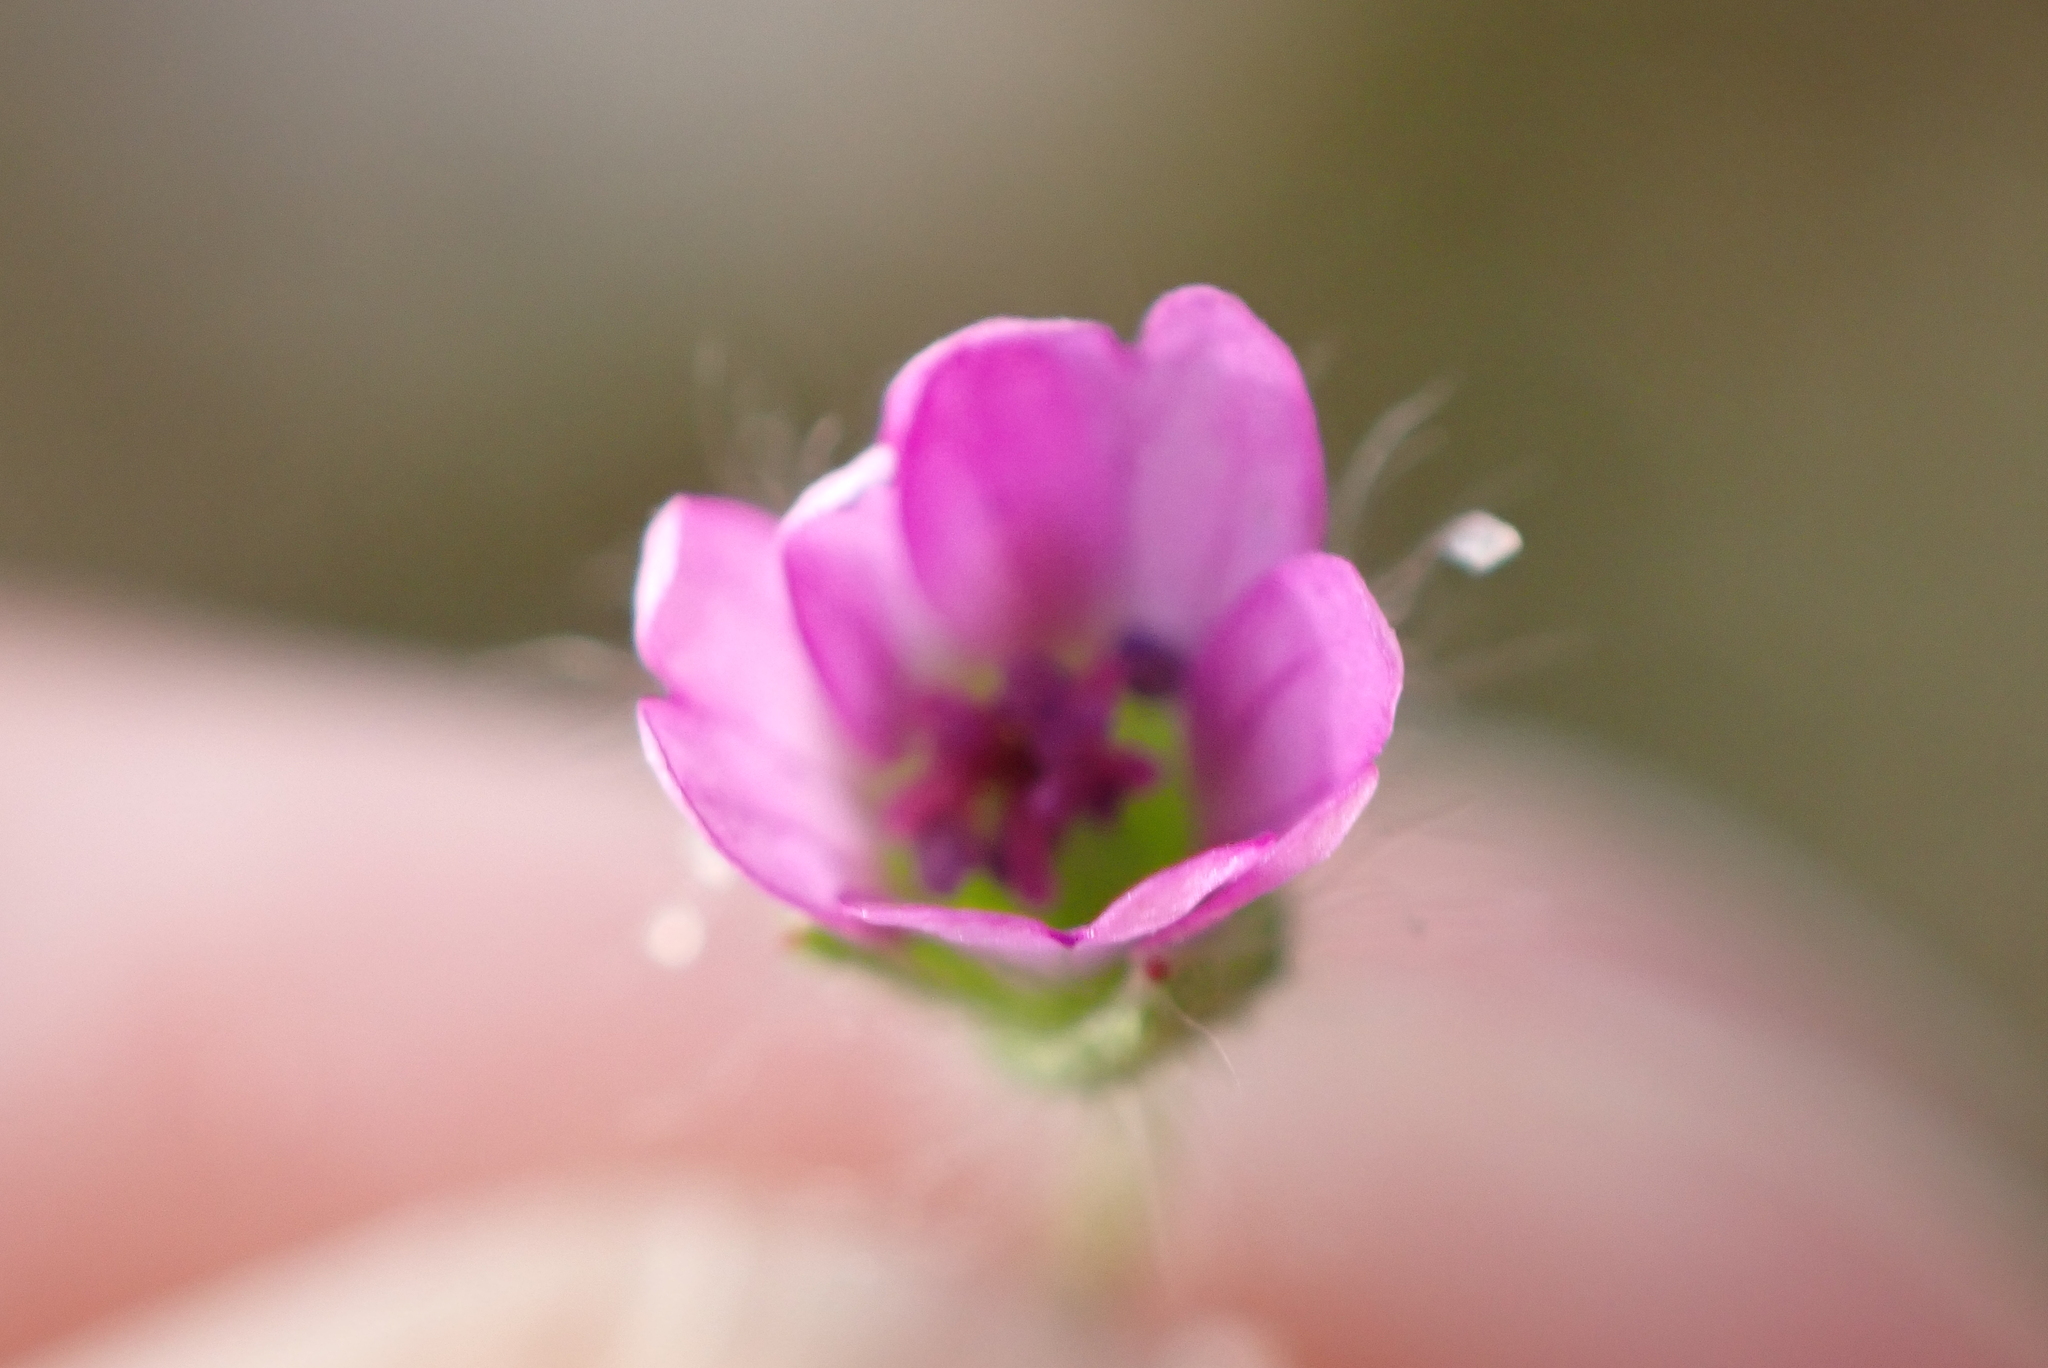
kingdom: Plantae
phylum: Tracheophyta
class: Magnoliopsida
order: Geraniales
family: Geraniaceae
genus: Geranium
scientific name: Geranium molle
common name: Dove's-foot crane's-bill
